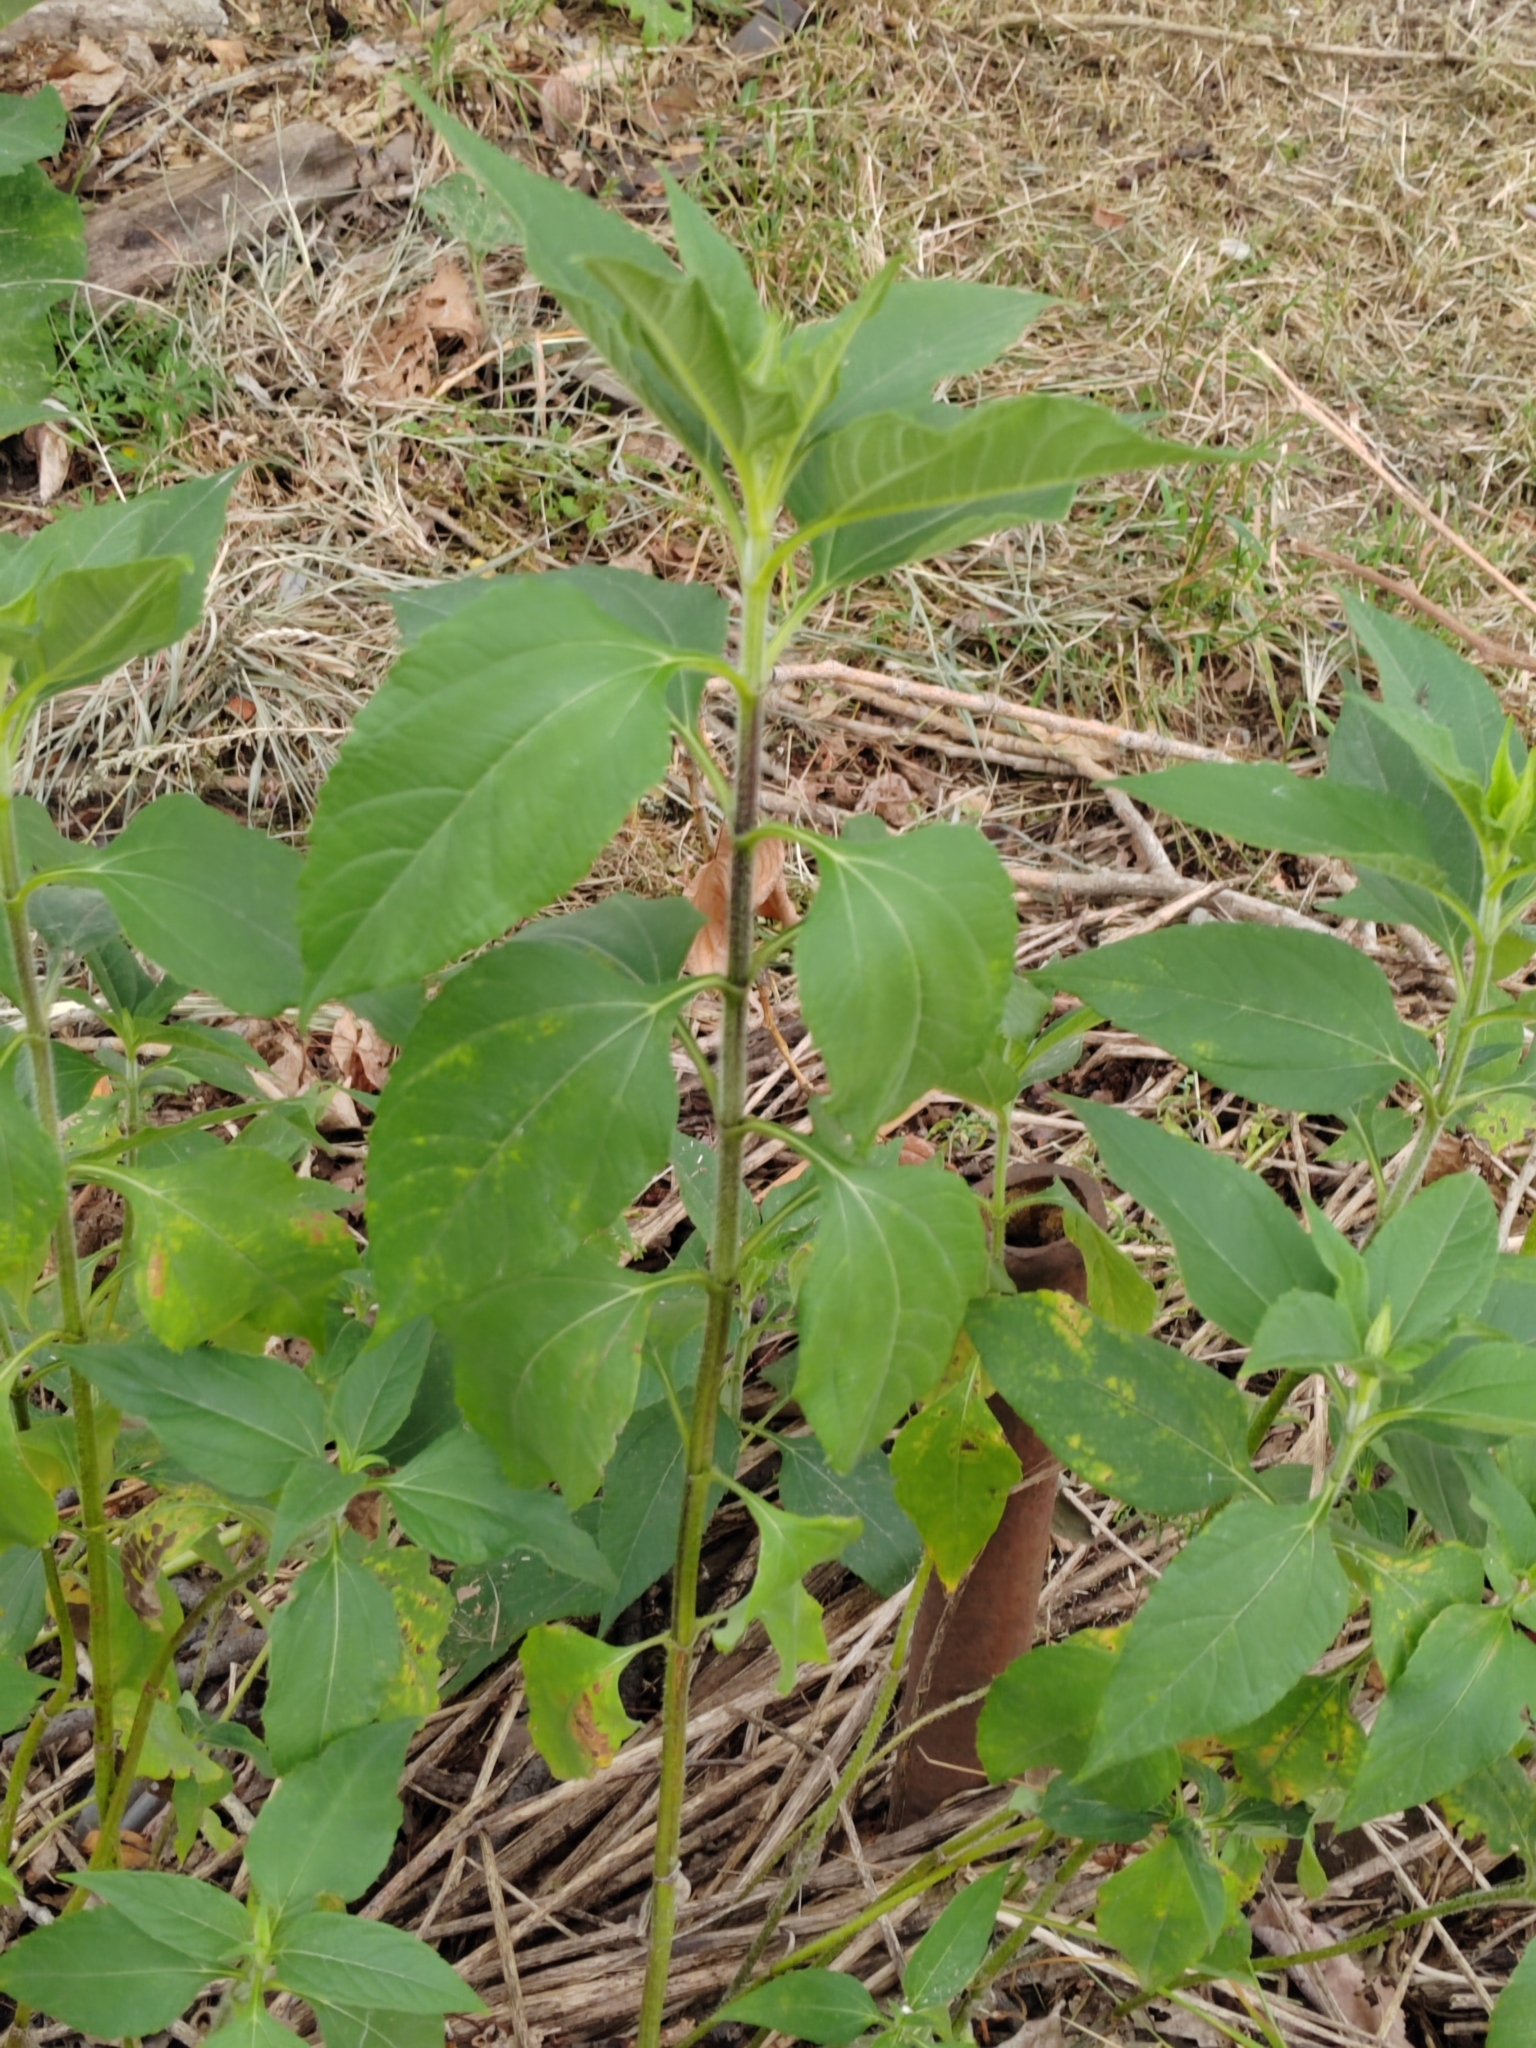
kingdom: Plantae
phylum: Tracheophyta
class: Magnoliopsida
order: Asterales
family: Asteraceae
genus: Helianthus
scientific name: Helianthus tuberosus
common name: Jerusalem artichoke
